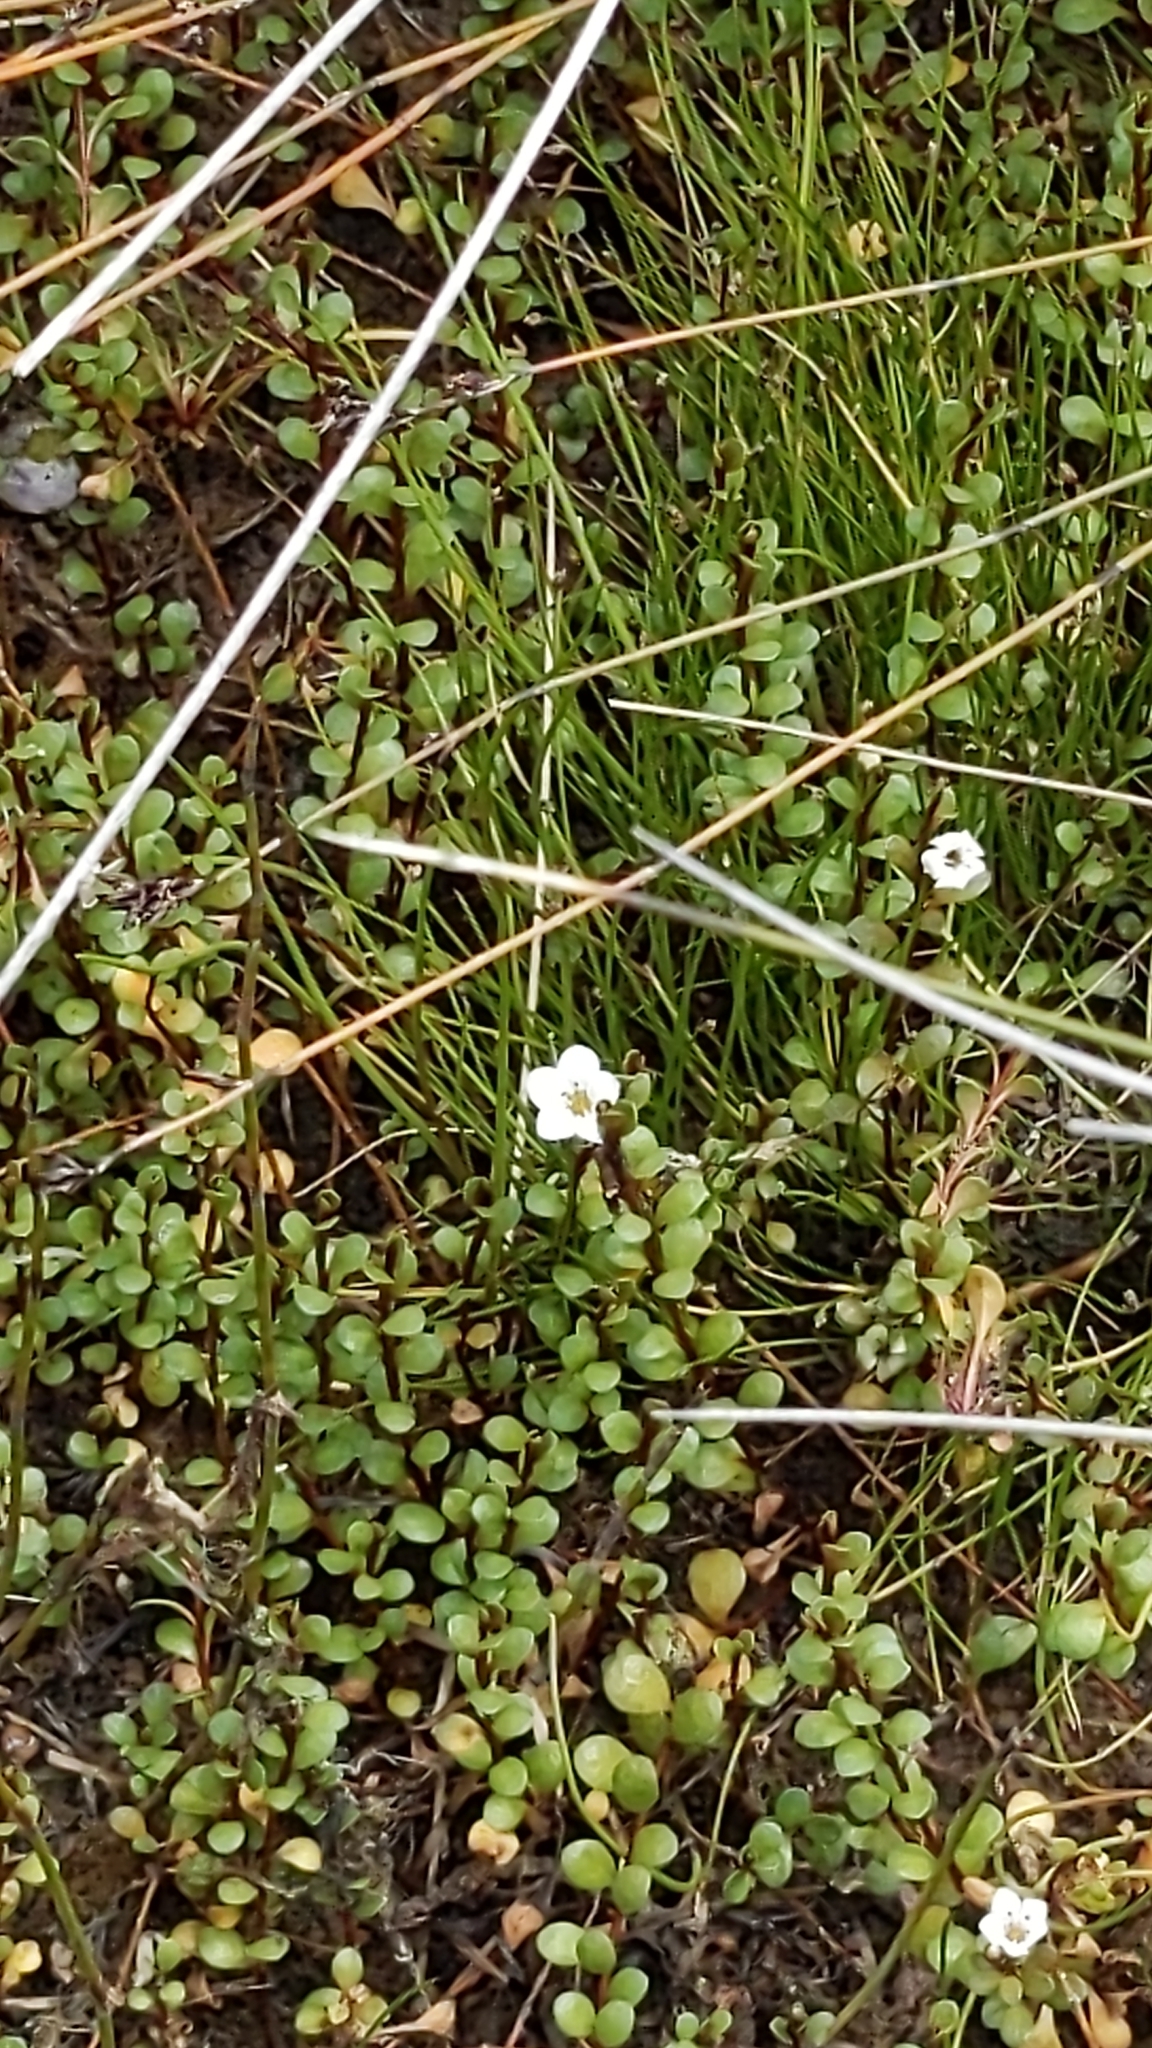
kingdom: Plantae
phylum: Tracheophyta
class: Magnoliopsida
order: Ericales
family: Primulaceae
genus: Samolus
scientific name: Samolus repens
